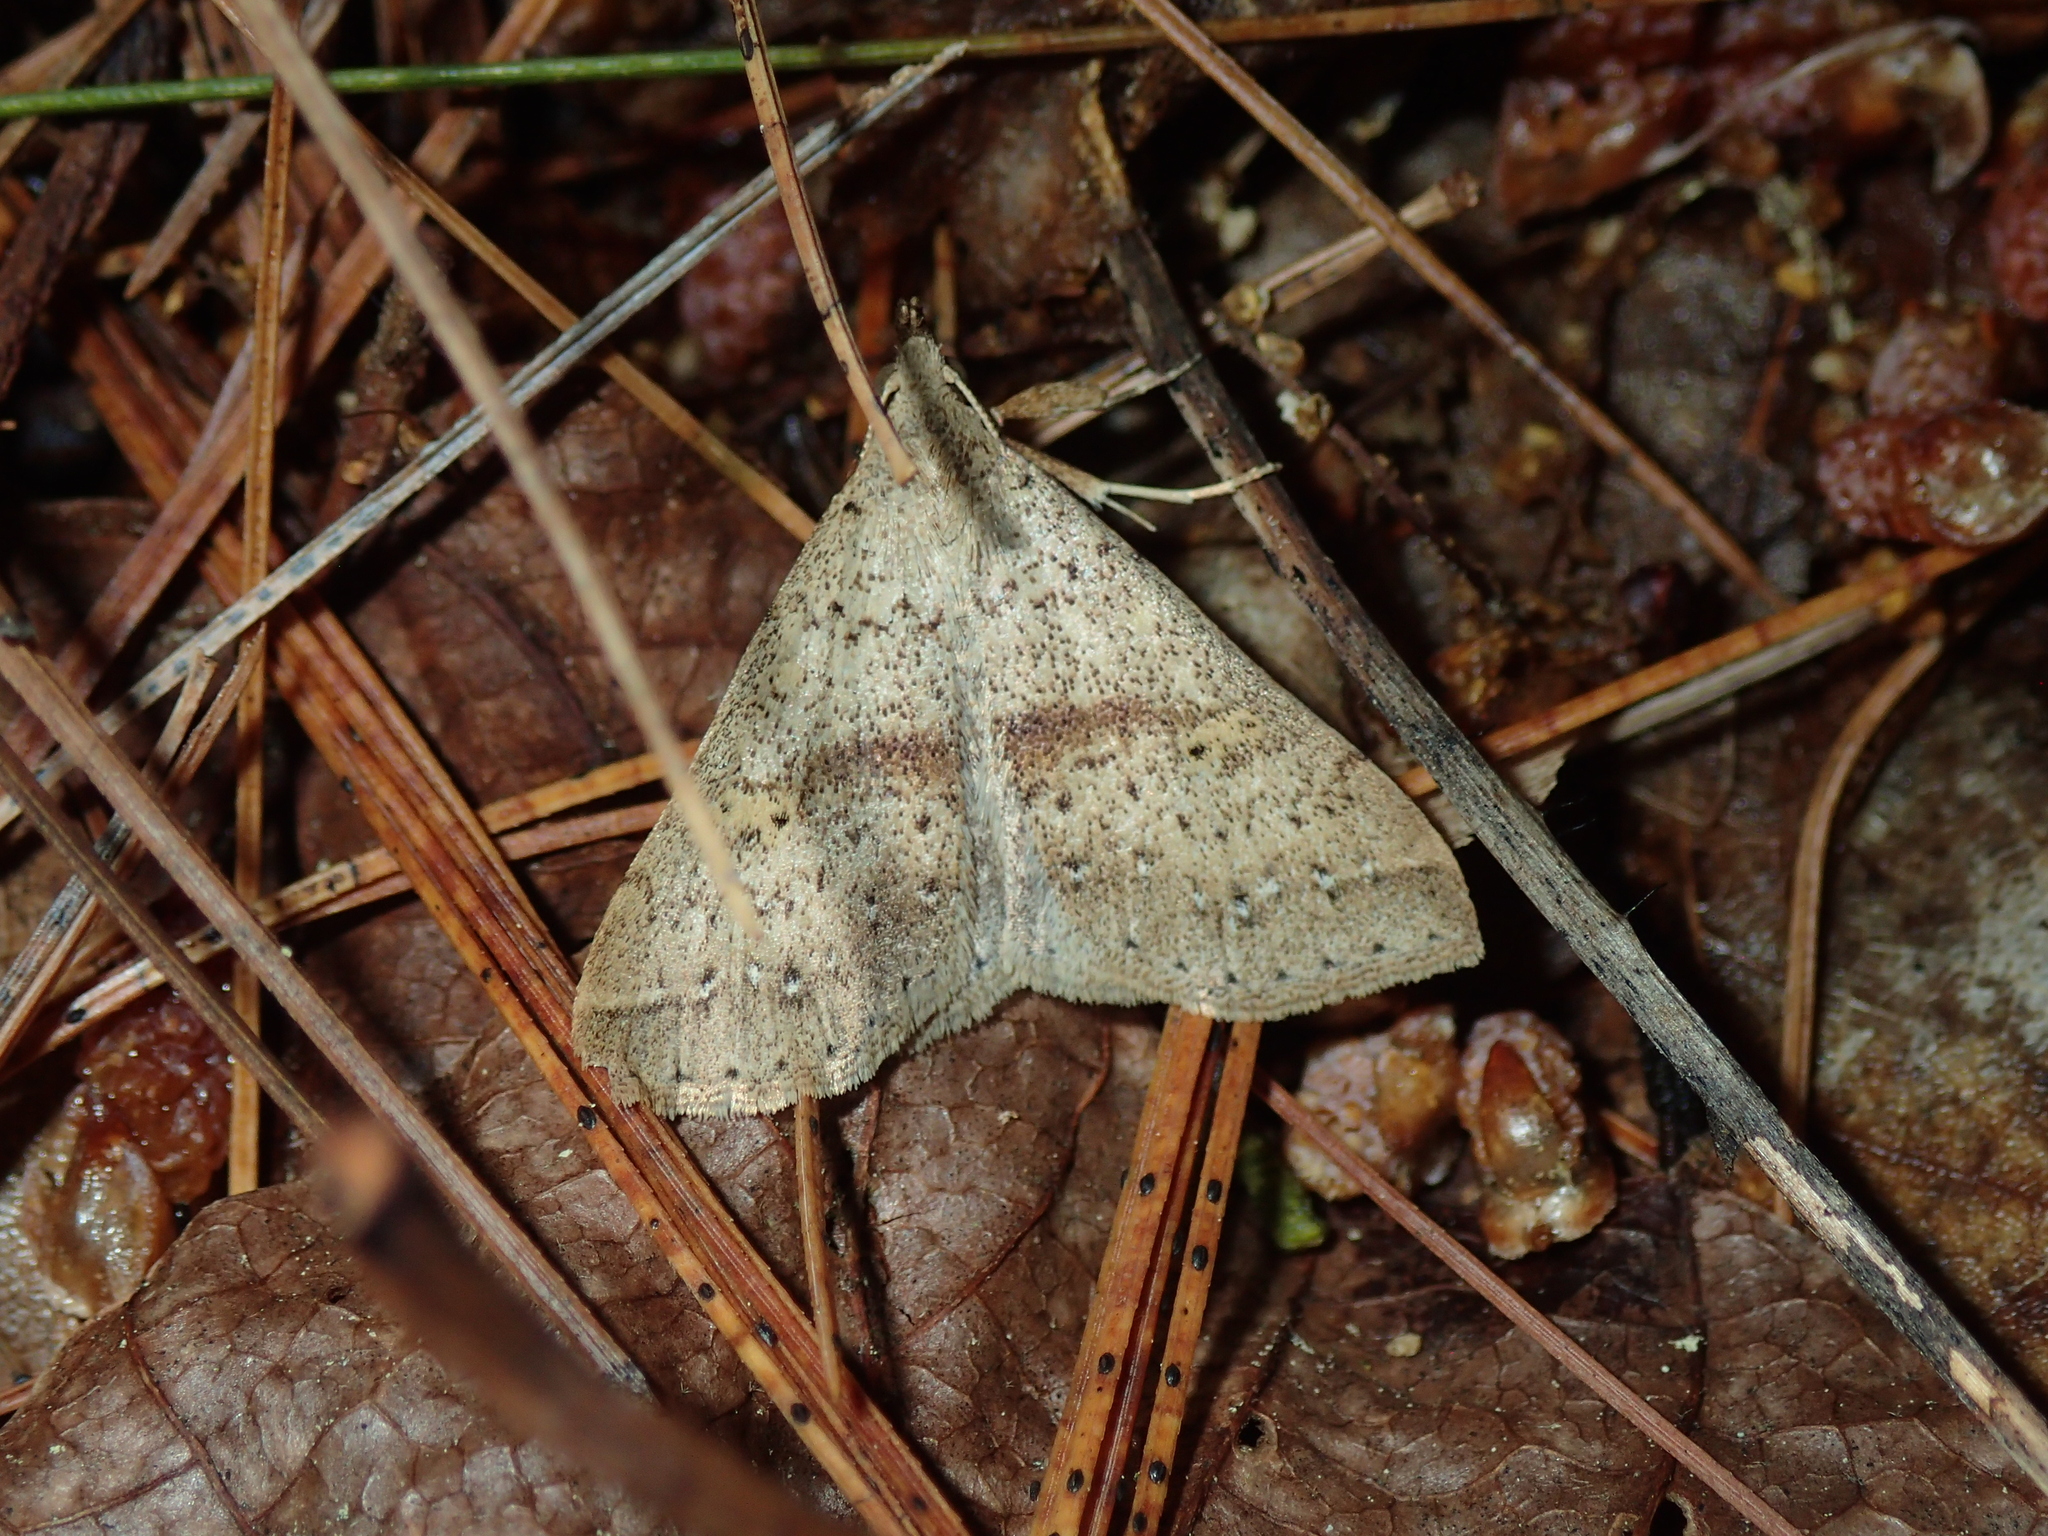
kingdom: Animalia
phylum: Arthropoda
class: Insecta
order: Lepidoptera
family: Erebidae
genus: Renia
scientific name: Renia salusalis
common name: Dotted renia moth
